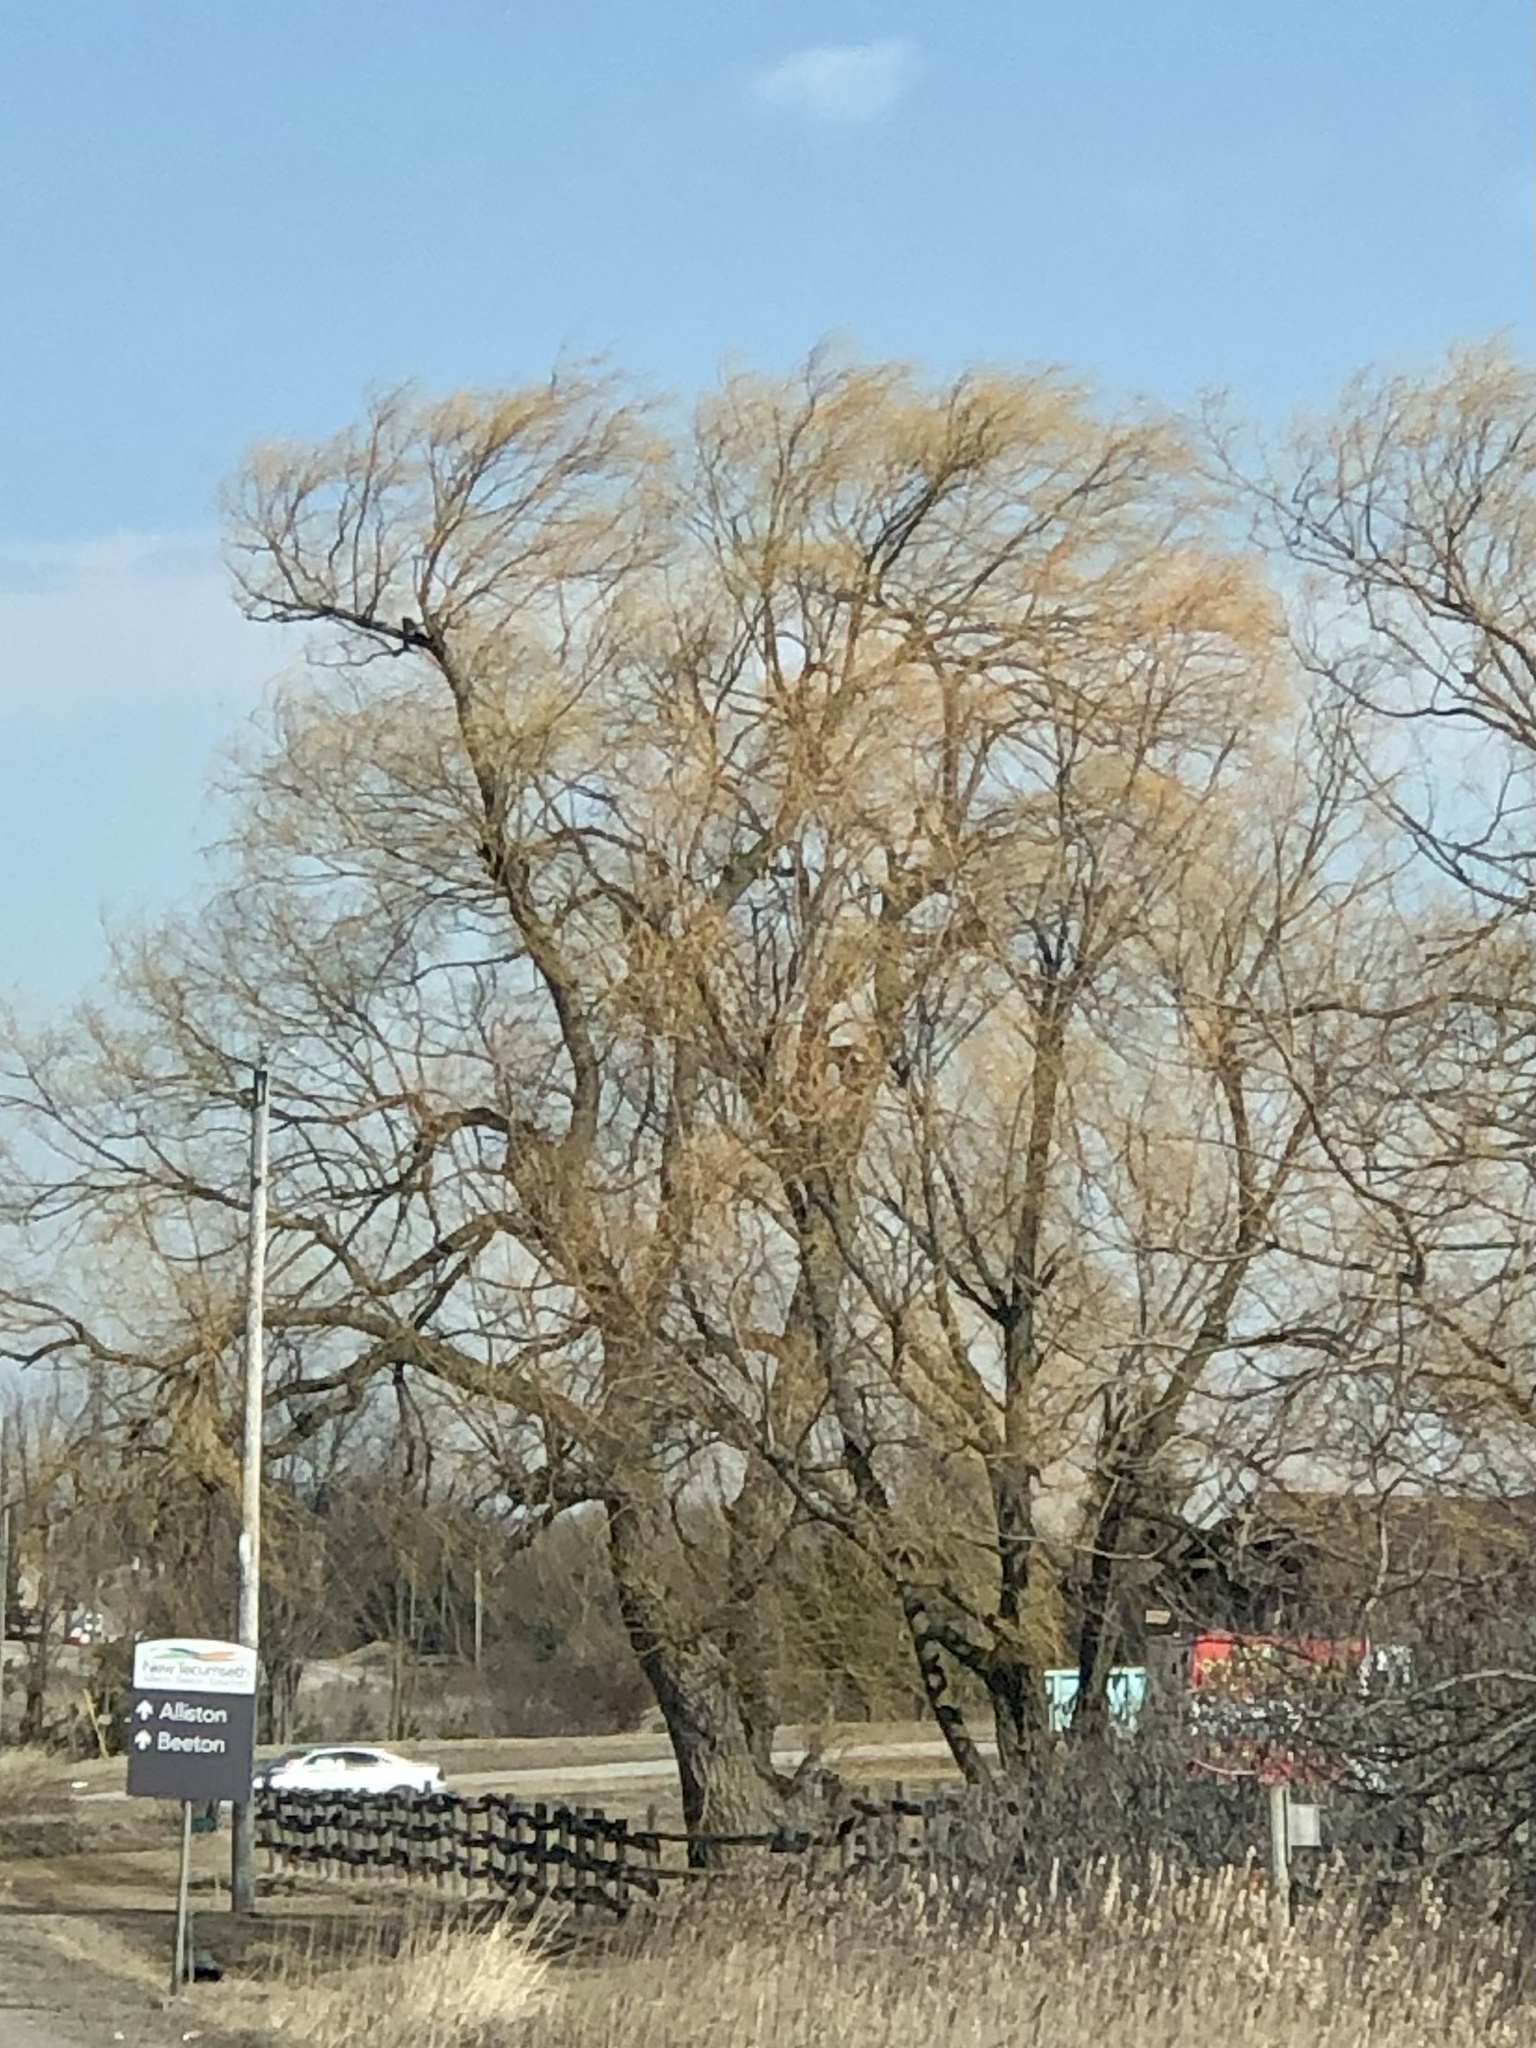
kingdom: Plantae
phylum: Tracheophyta
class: Magnoliopsida
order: Malpighiales
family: Salicaceae
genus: Salix
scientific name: Salix pendulina
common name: Wisconsin weeping willow
